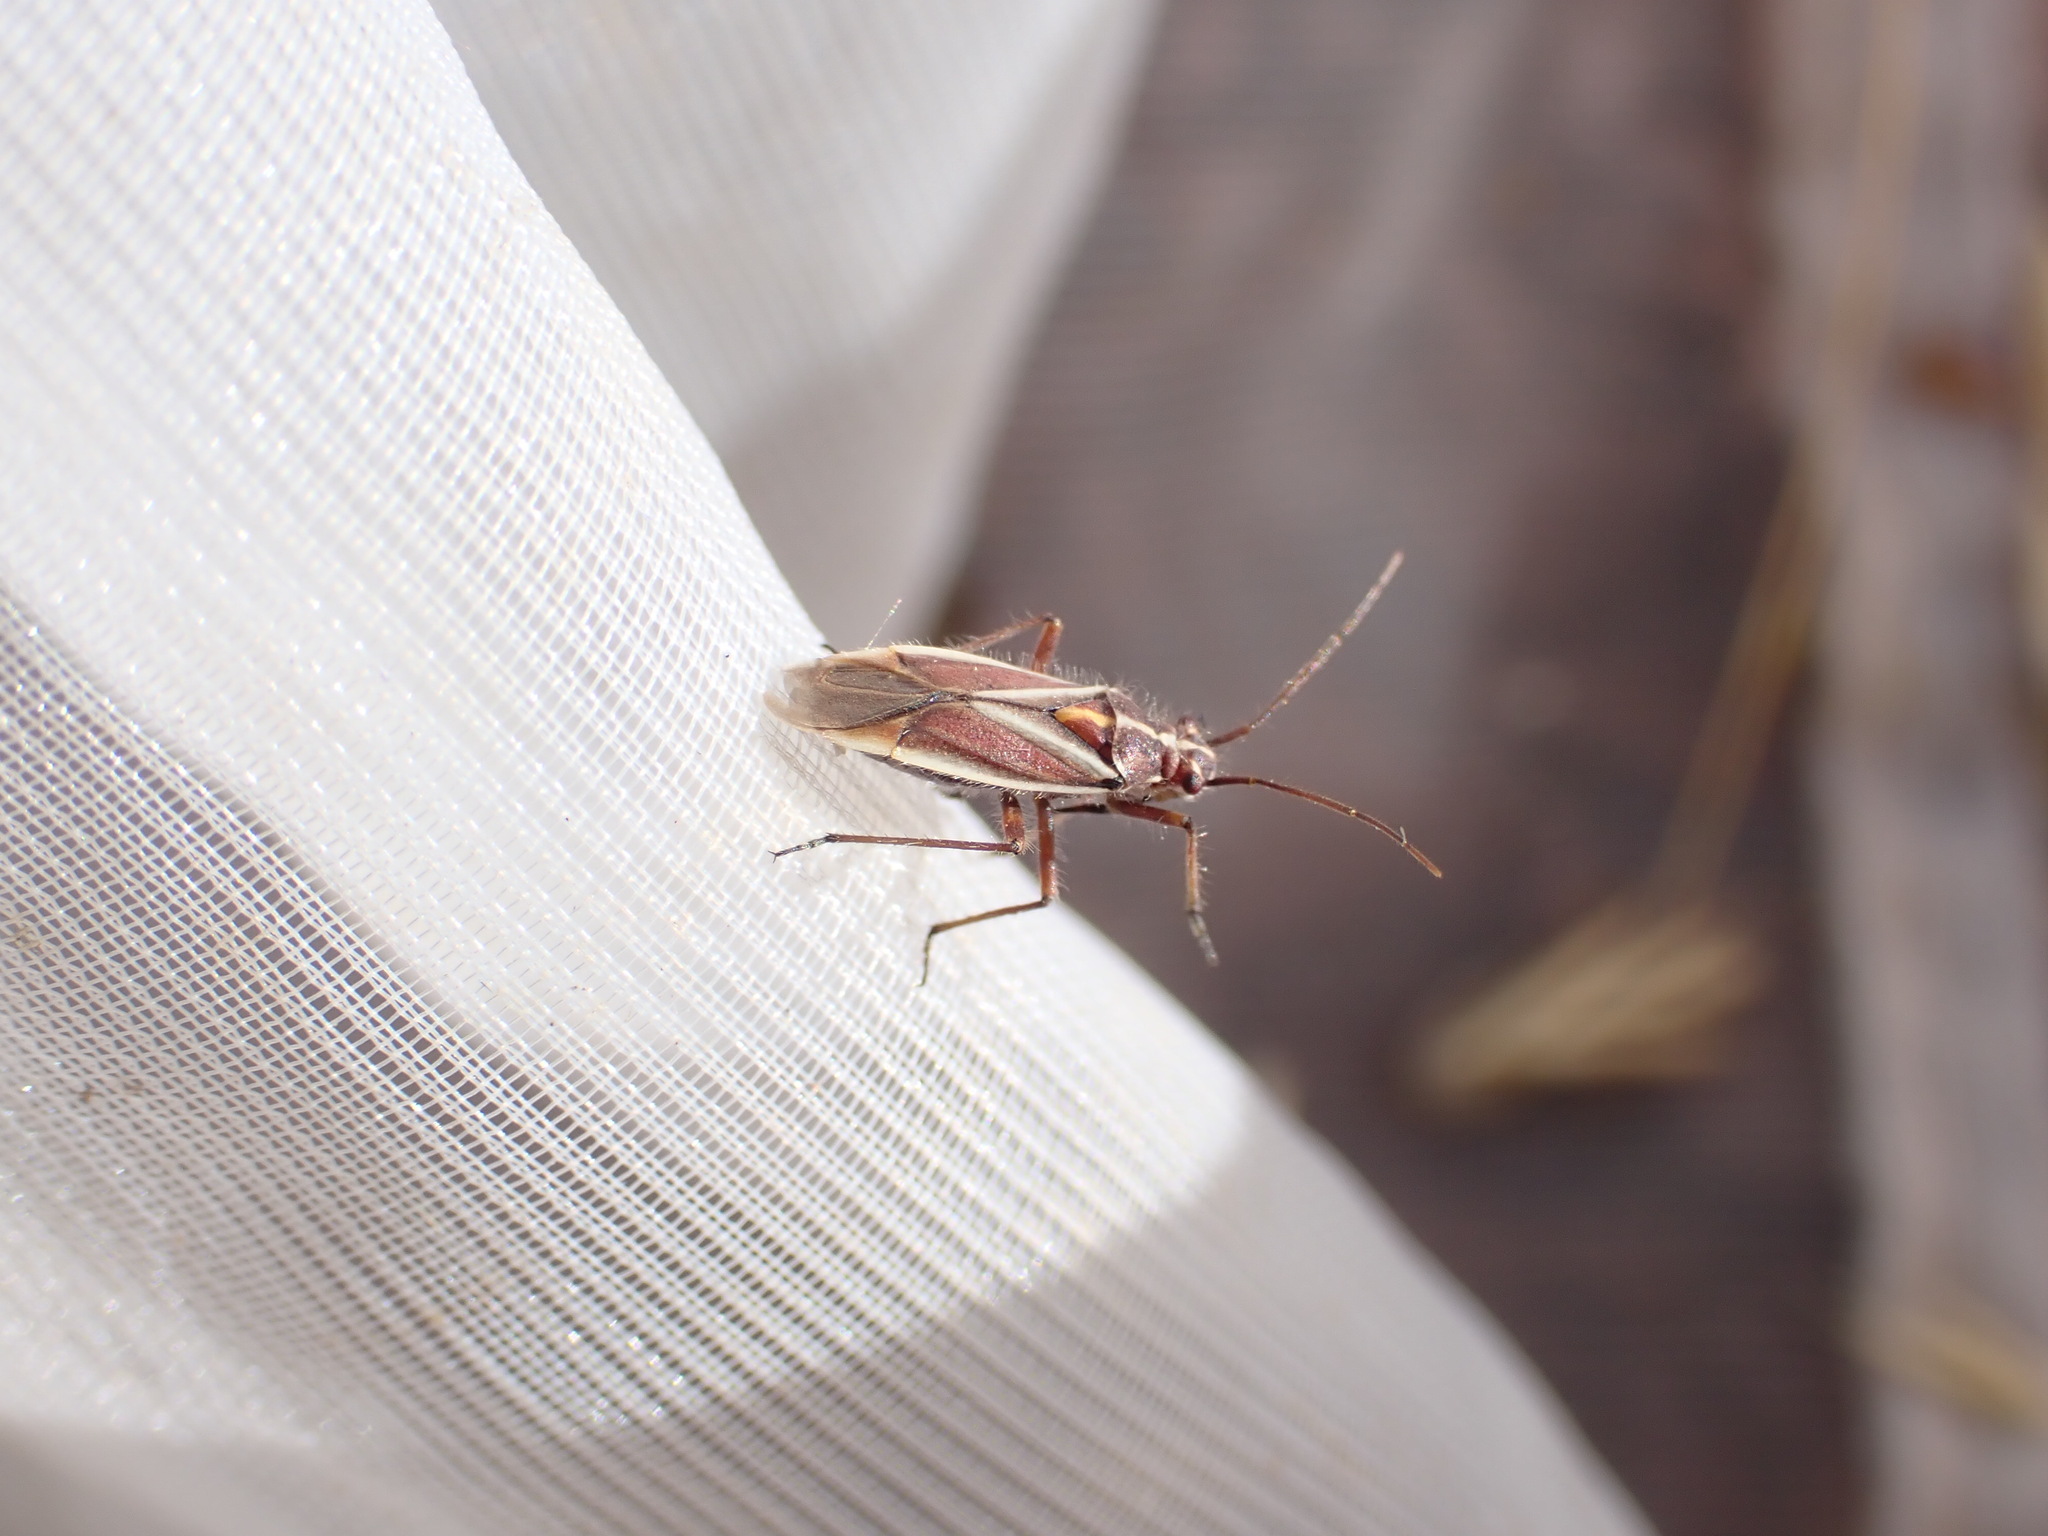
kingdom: Animalia
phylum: Arthropoda
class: Insecta
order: Hemiptera
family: Miridae
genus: Horistus
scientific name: Horistus orientalis
